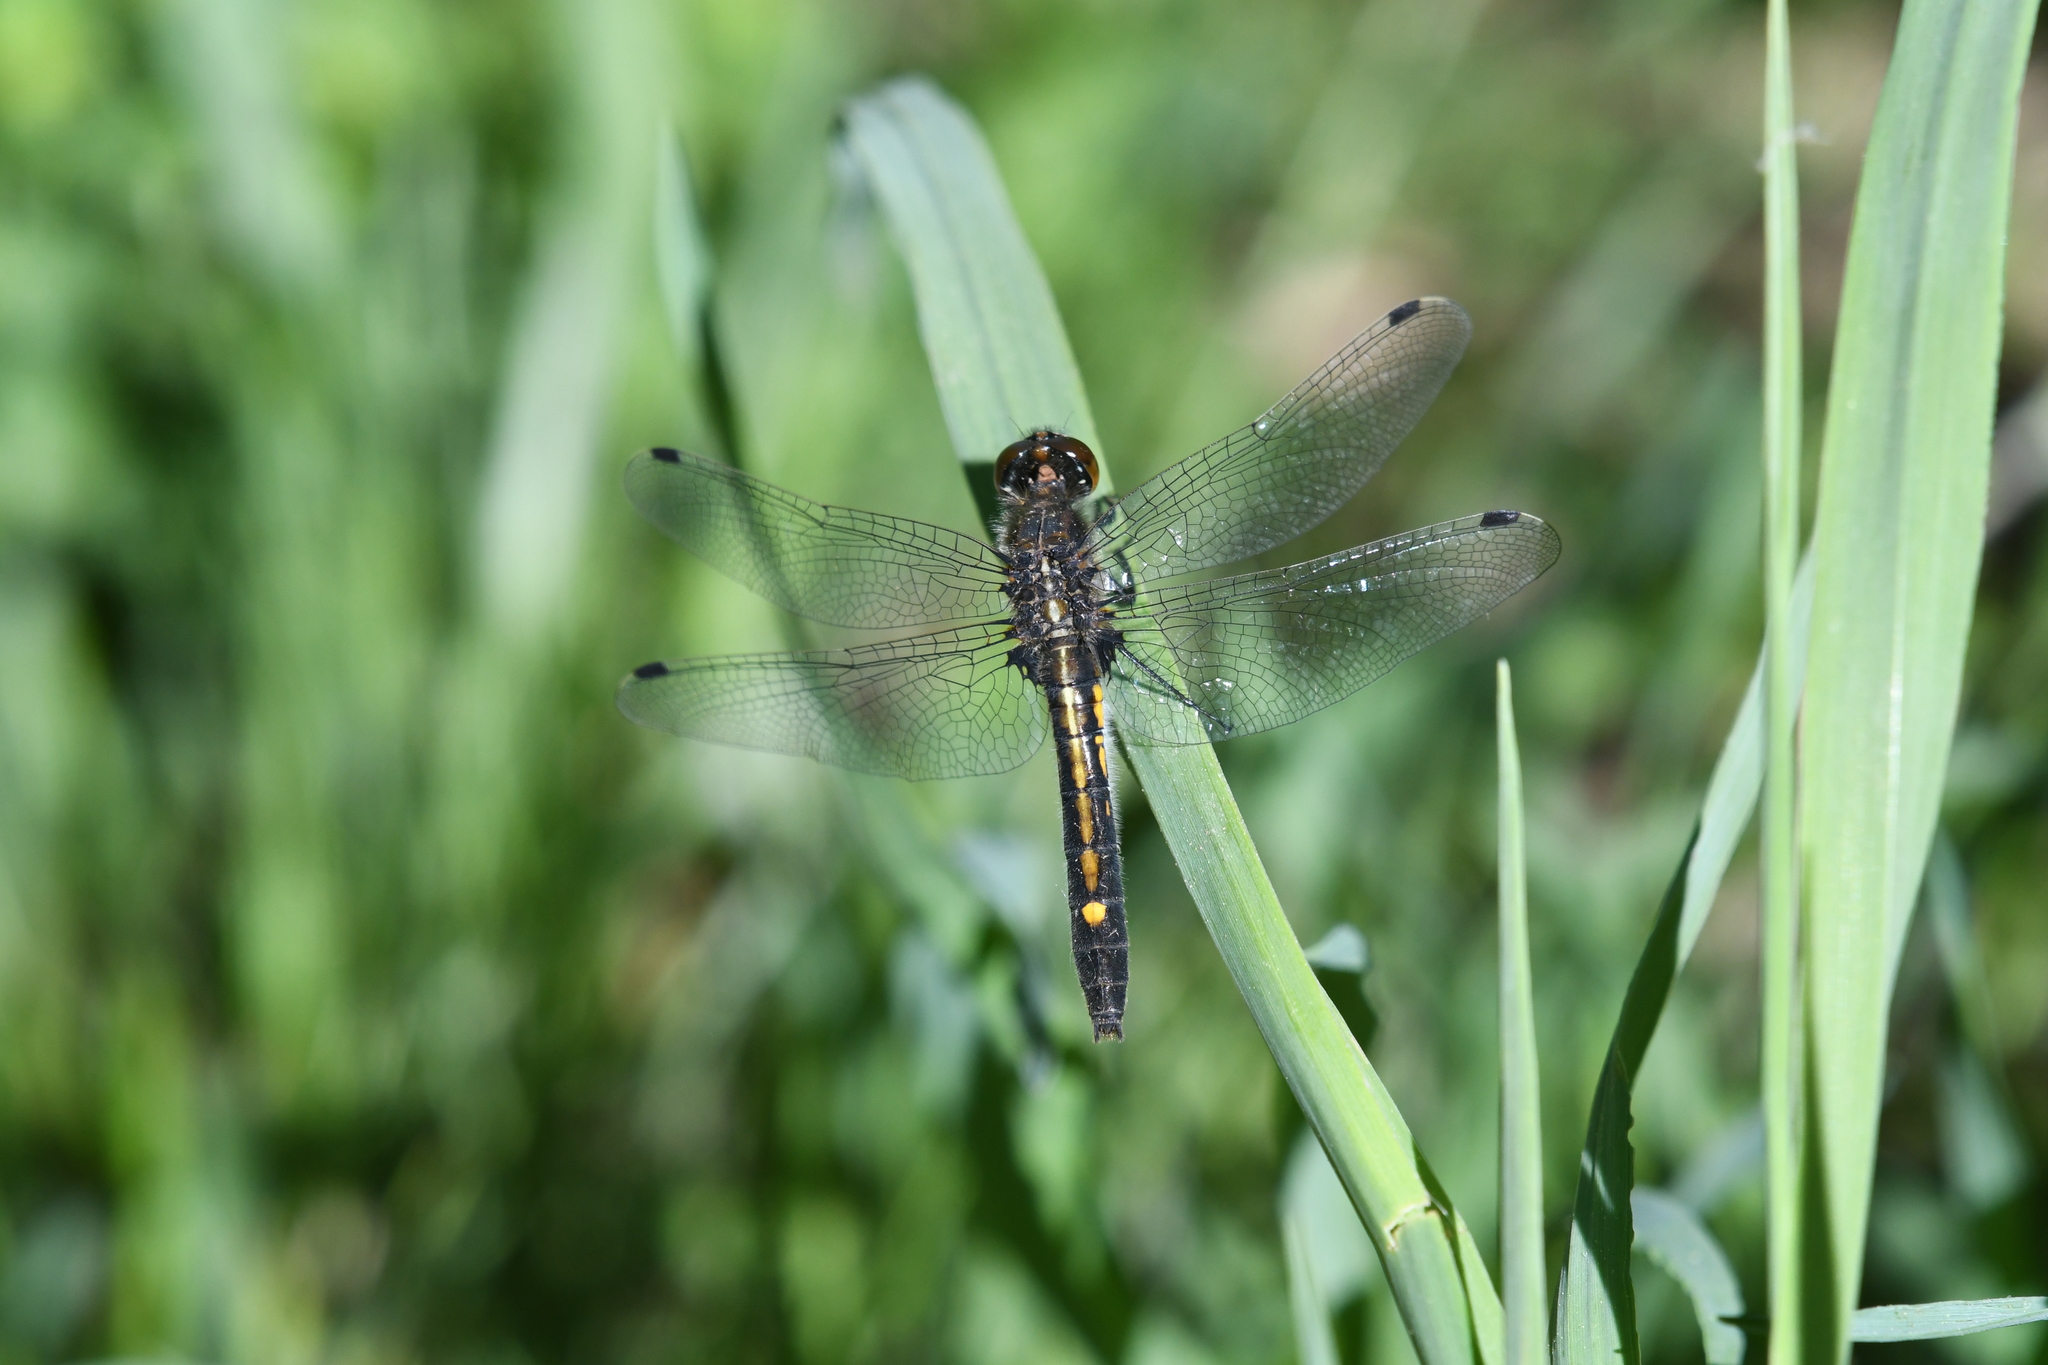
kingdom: Animalia
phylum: Arthropoda
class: Insecta
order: Odonata
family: Libellulidae
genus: Leucorrhinia
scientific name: Leucorrhinia intacta
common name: Dot-tailed whiteface
